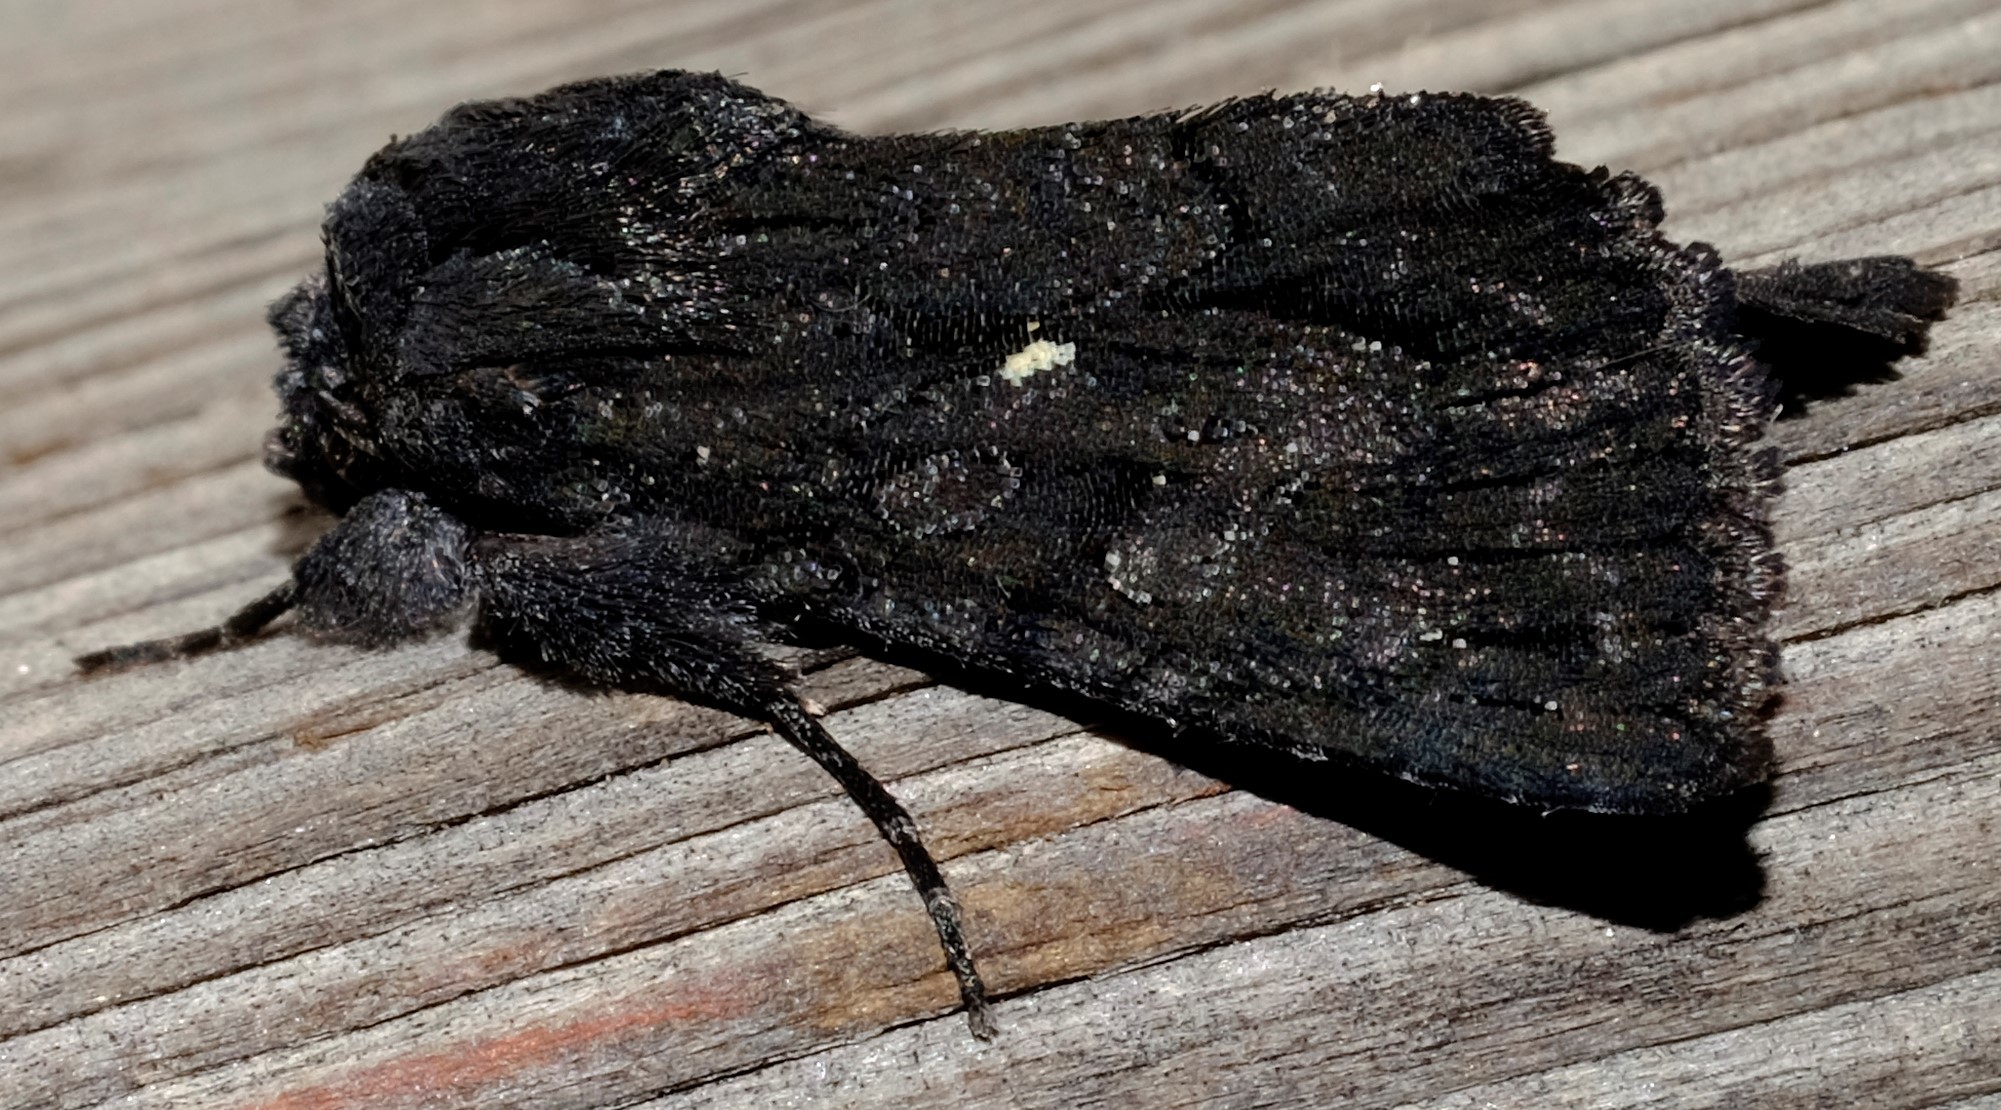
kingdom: Animalia
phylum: Arthropoda
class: Insecta
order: Lepidoptera
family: Noctuidae
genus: Neumichtis
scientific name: Neumichtis
